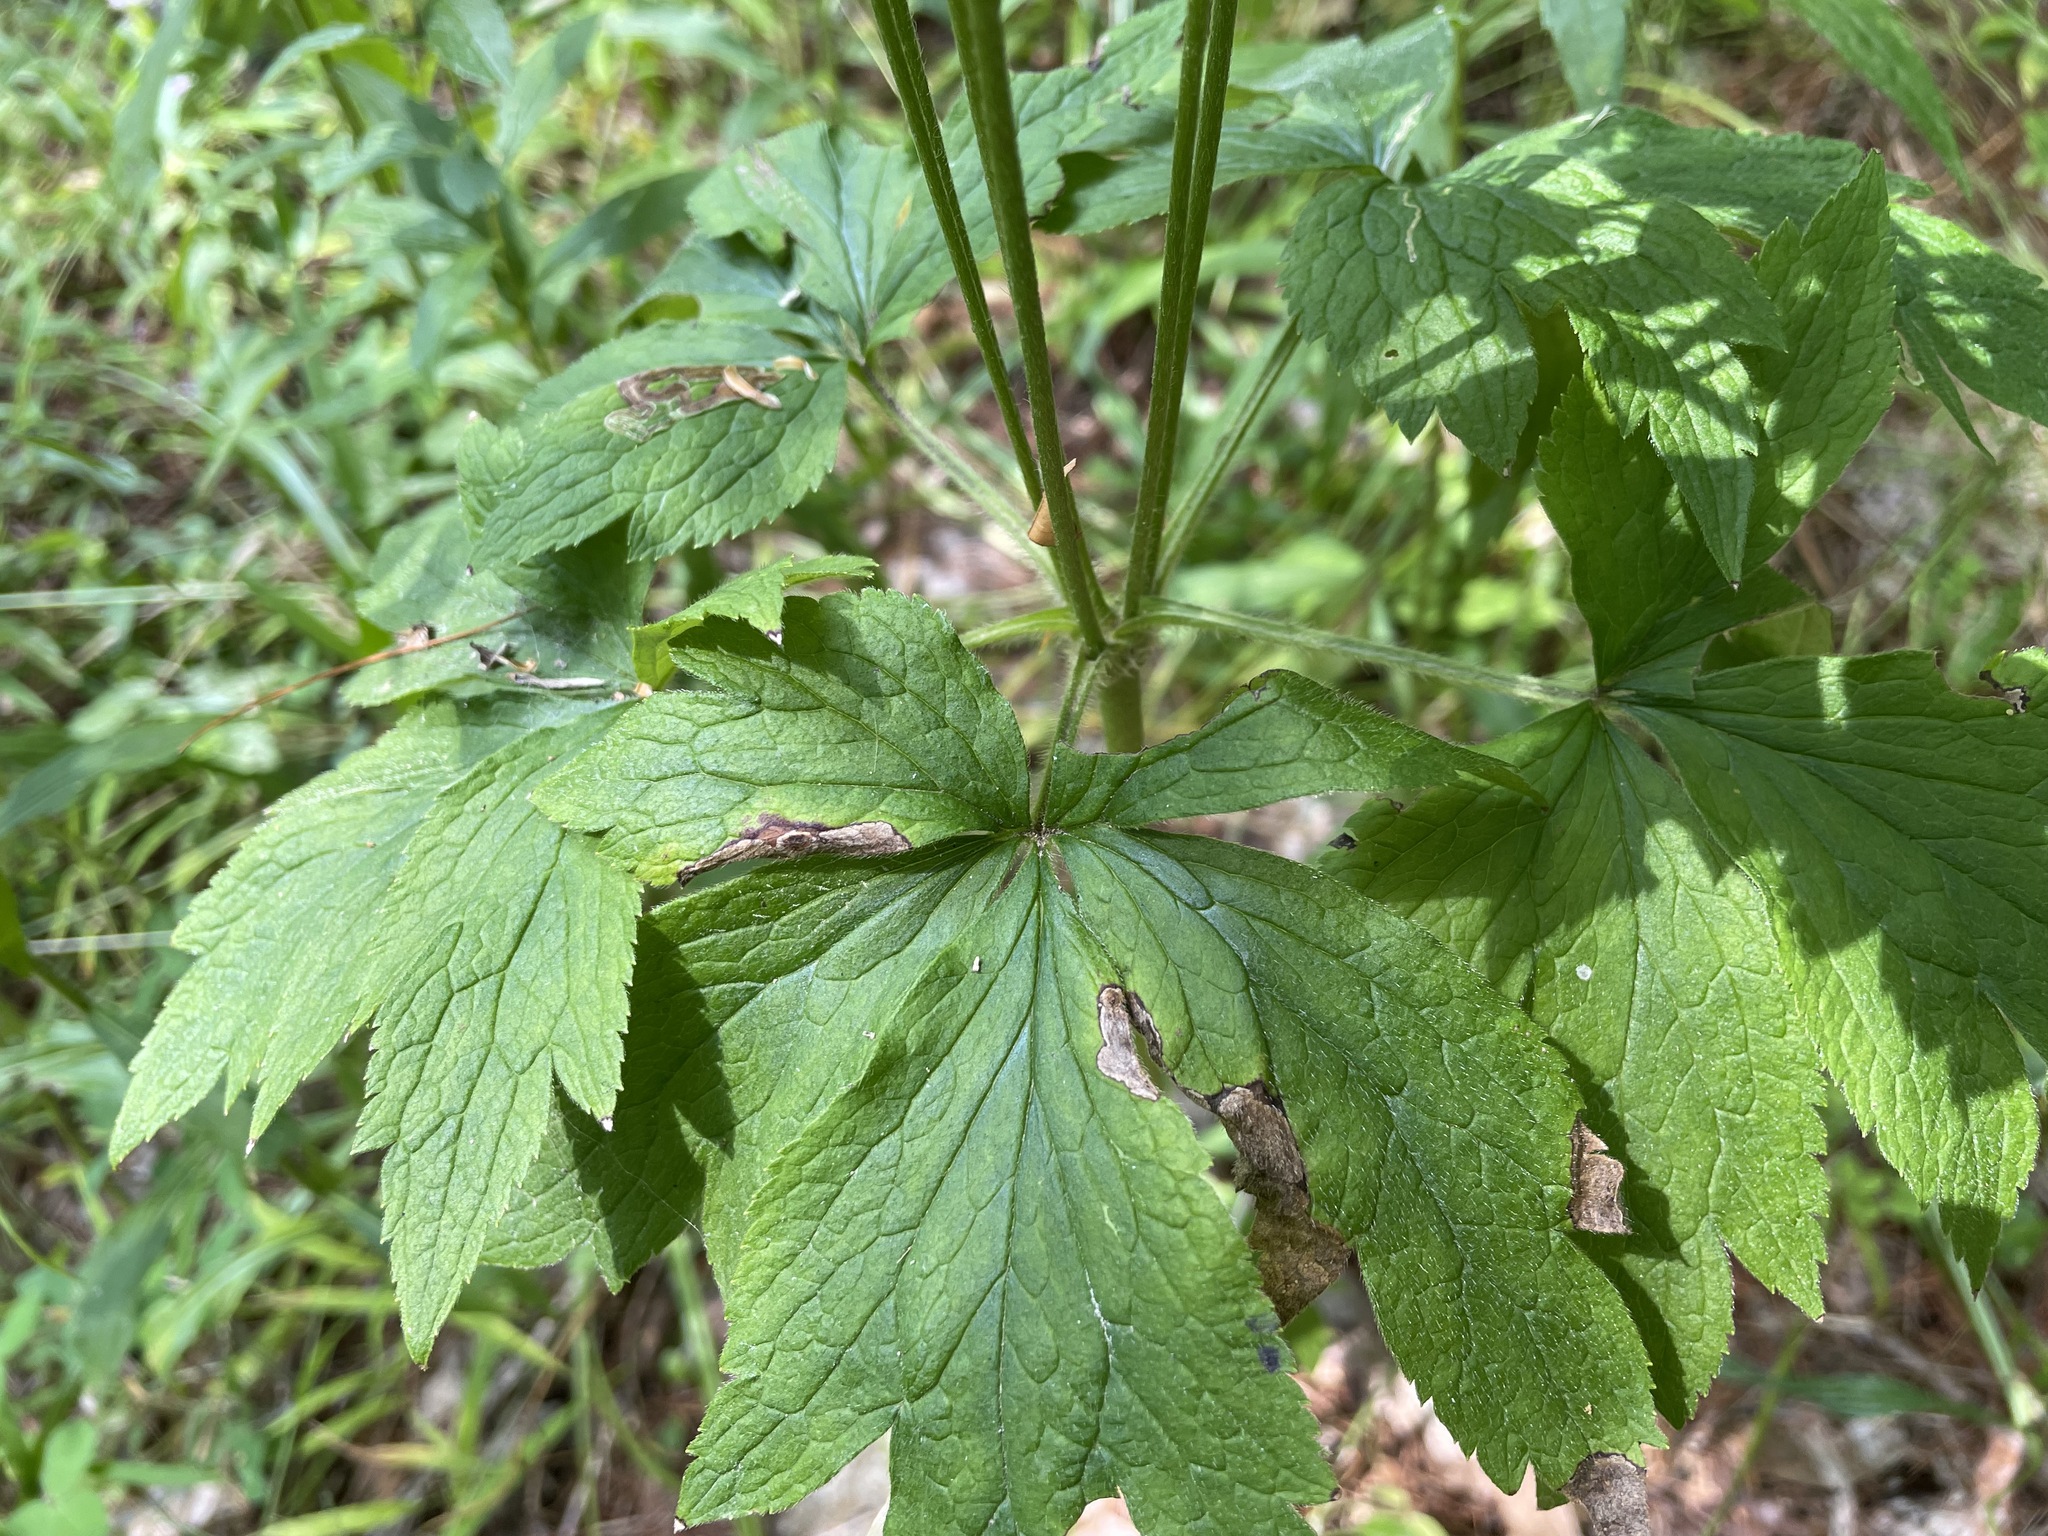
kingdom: Plantae
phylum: Tracheophyta
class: Magnoliopsida
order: Ranunculales
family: Ranunculaceae
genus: Anemone
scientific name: Anemone virginiana
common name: Tall anemone
